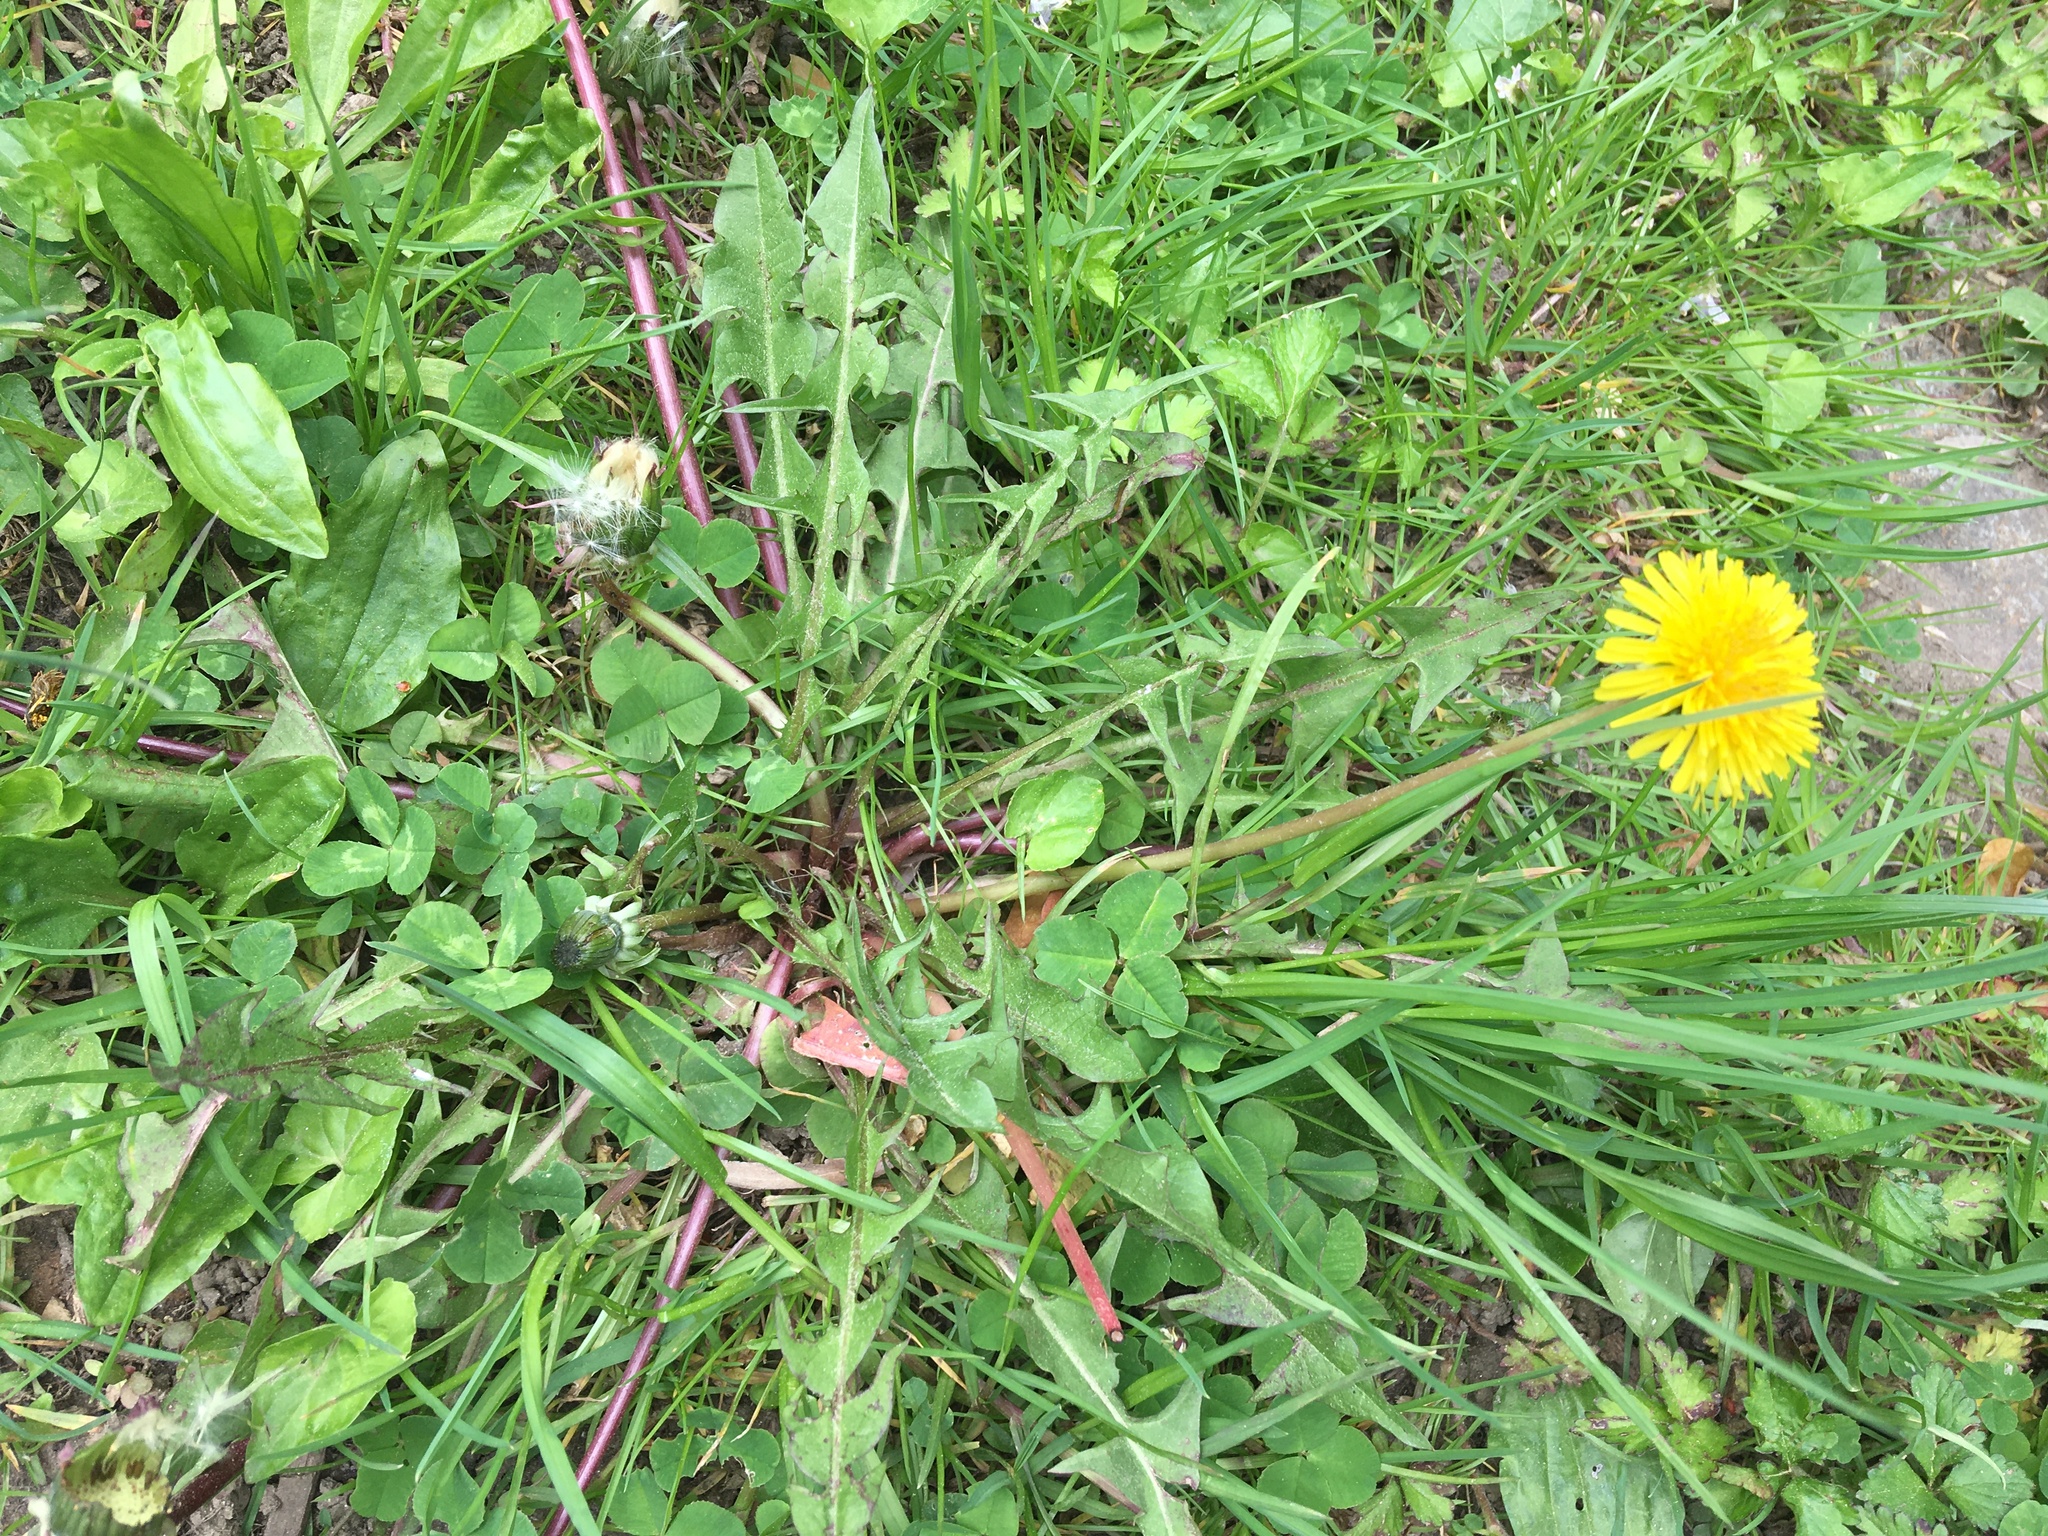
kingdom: Plantae
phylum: Tracheophyta
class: Magnoliopsida
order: Asterales
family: Asteraceae
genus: Taraxacum
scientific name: Taraxacum
